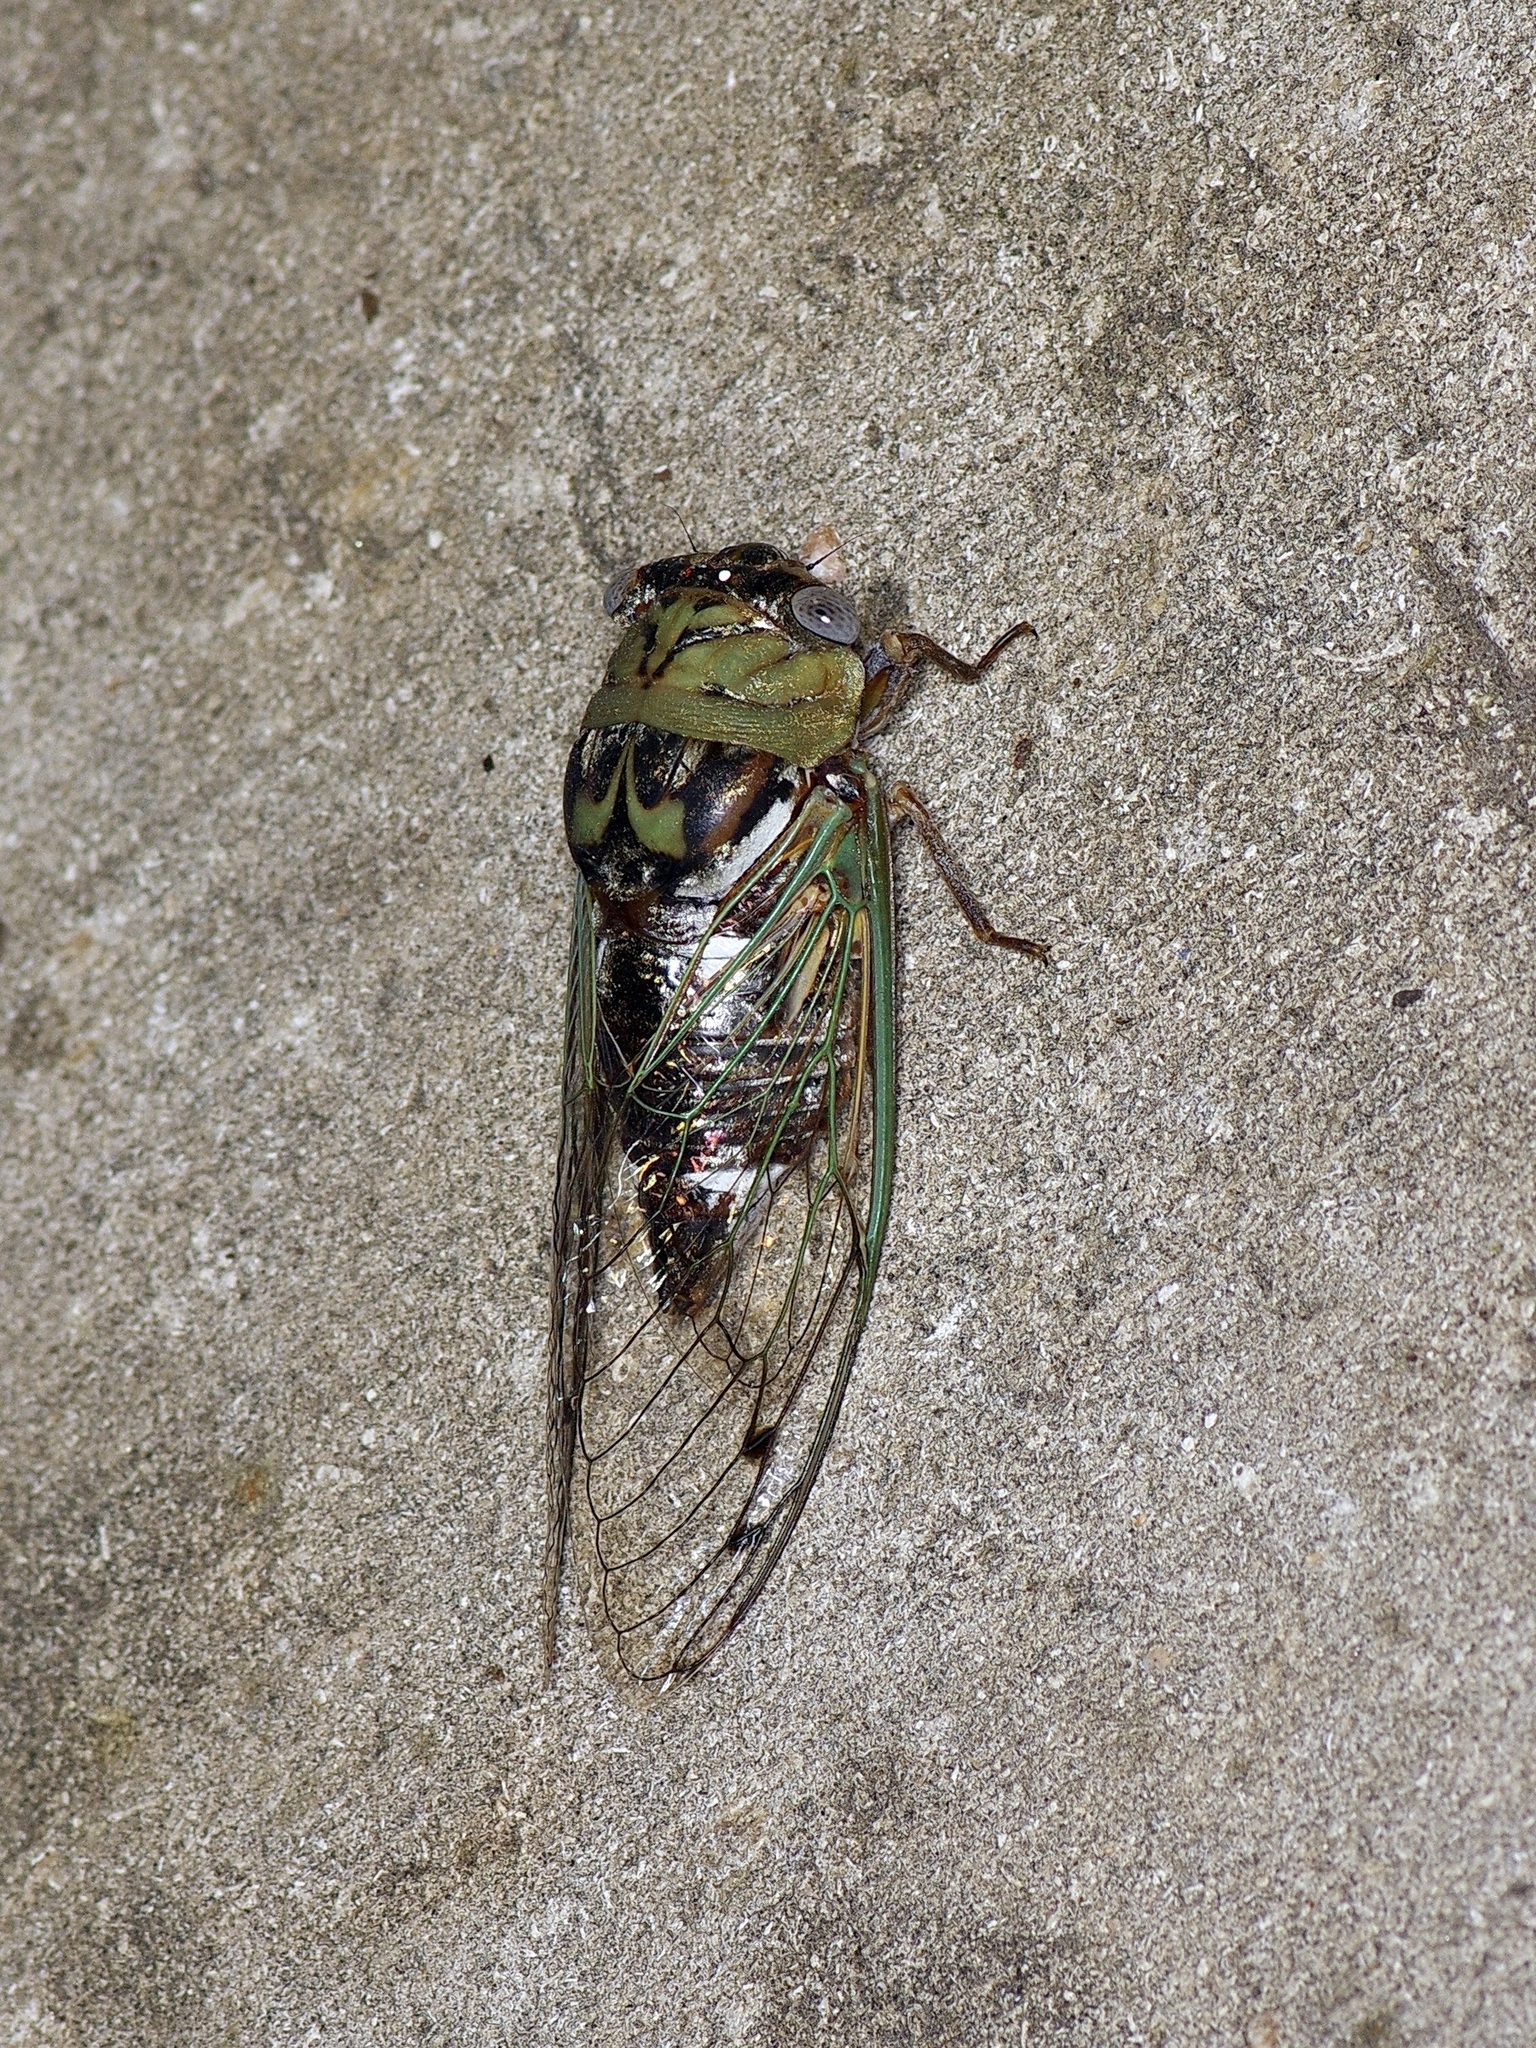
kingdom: Animalia
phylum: Arthropoda
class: Insecta
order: Hemiptera
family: Cicadidae
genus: Megatibicen
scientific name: Megatibicen resh
